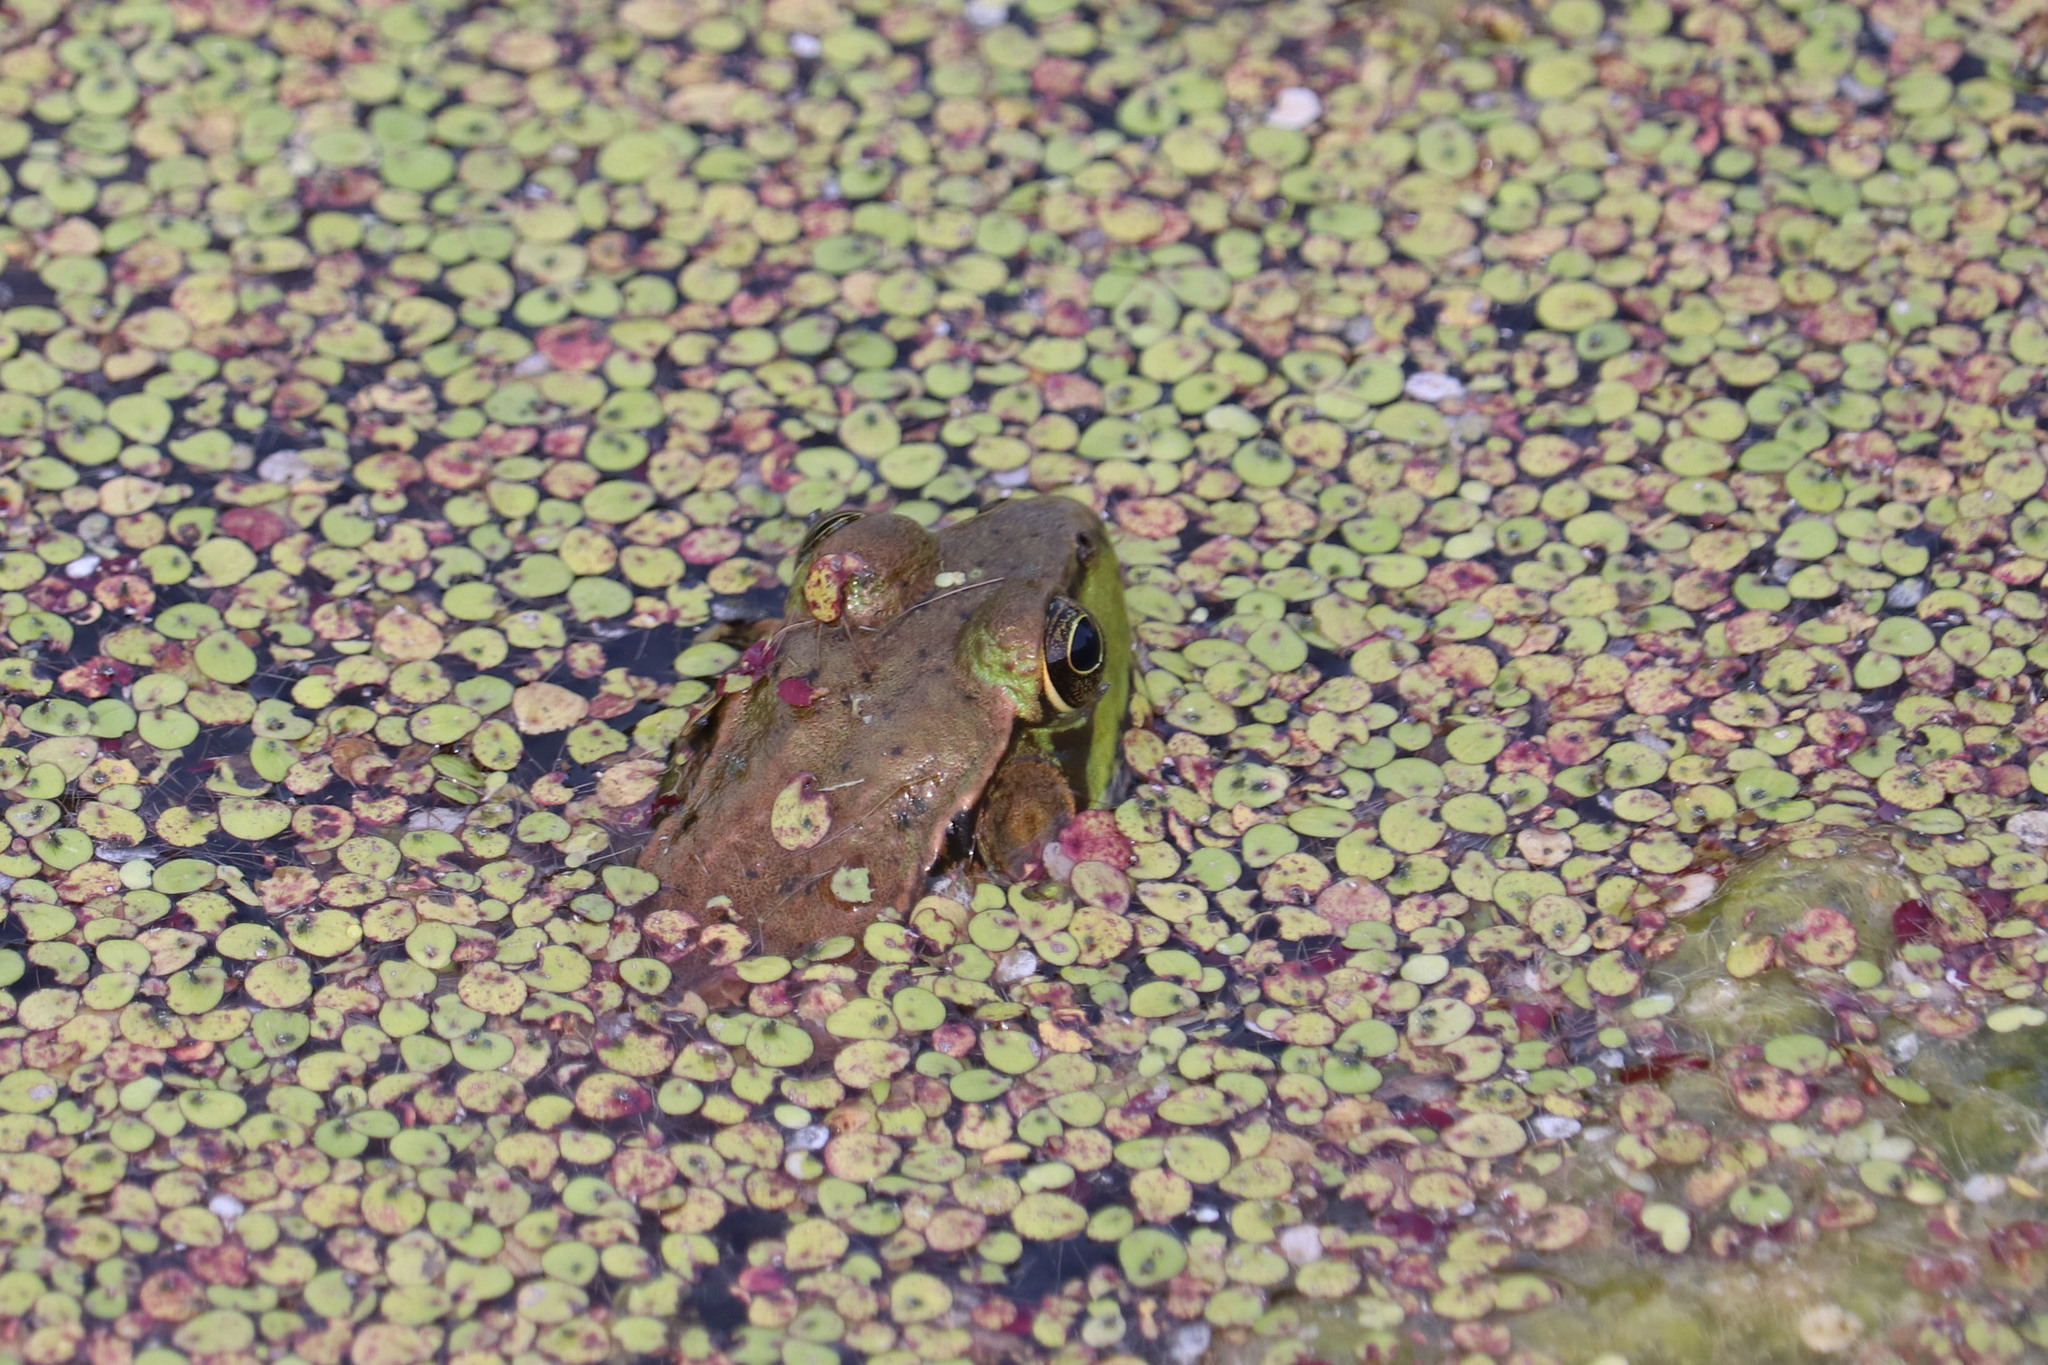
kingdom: Animalia
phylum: Chordata
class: Amphibia
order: Anura
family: Ranidae
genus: Lithobates
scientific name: Lithobates clamitans
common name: Green frog
